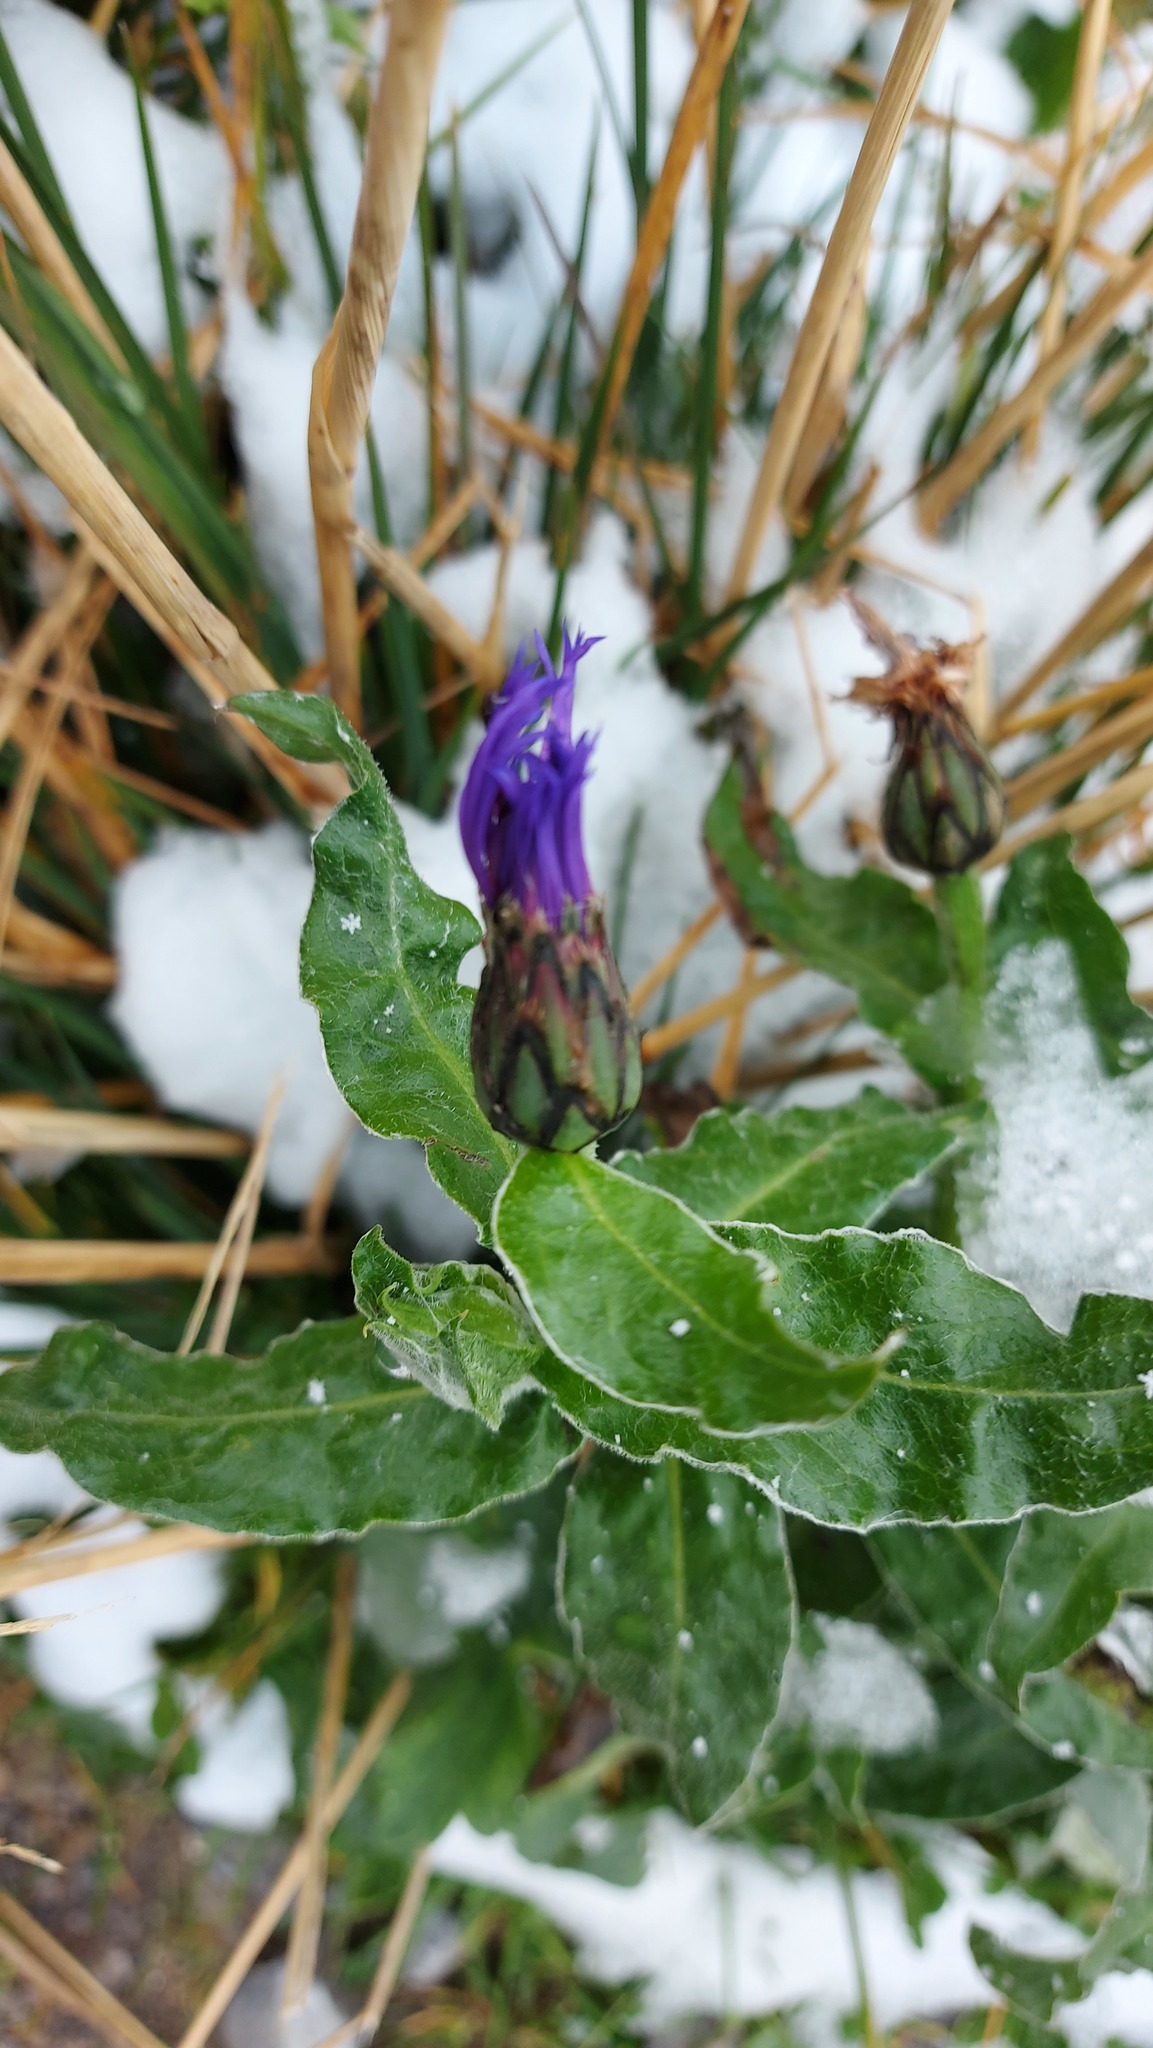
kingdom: Plantae
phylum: Tracheophyta
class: Magnoliopsida
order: Asterales
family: Asteraceae
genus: Centaurea
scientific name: Centaurea montana
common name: Perennial cornflower
